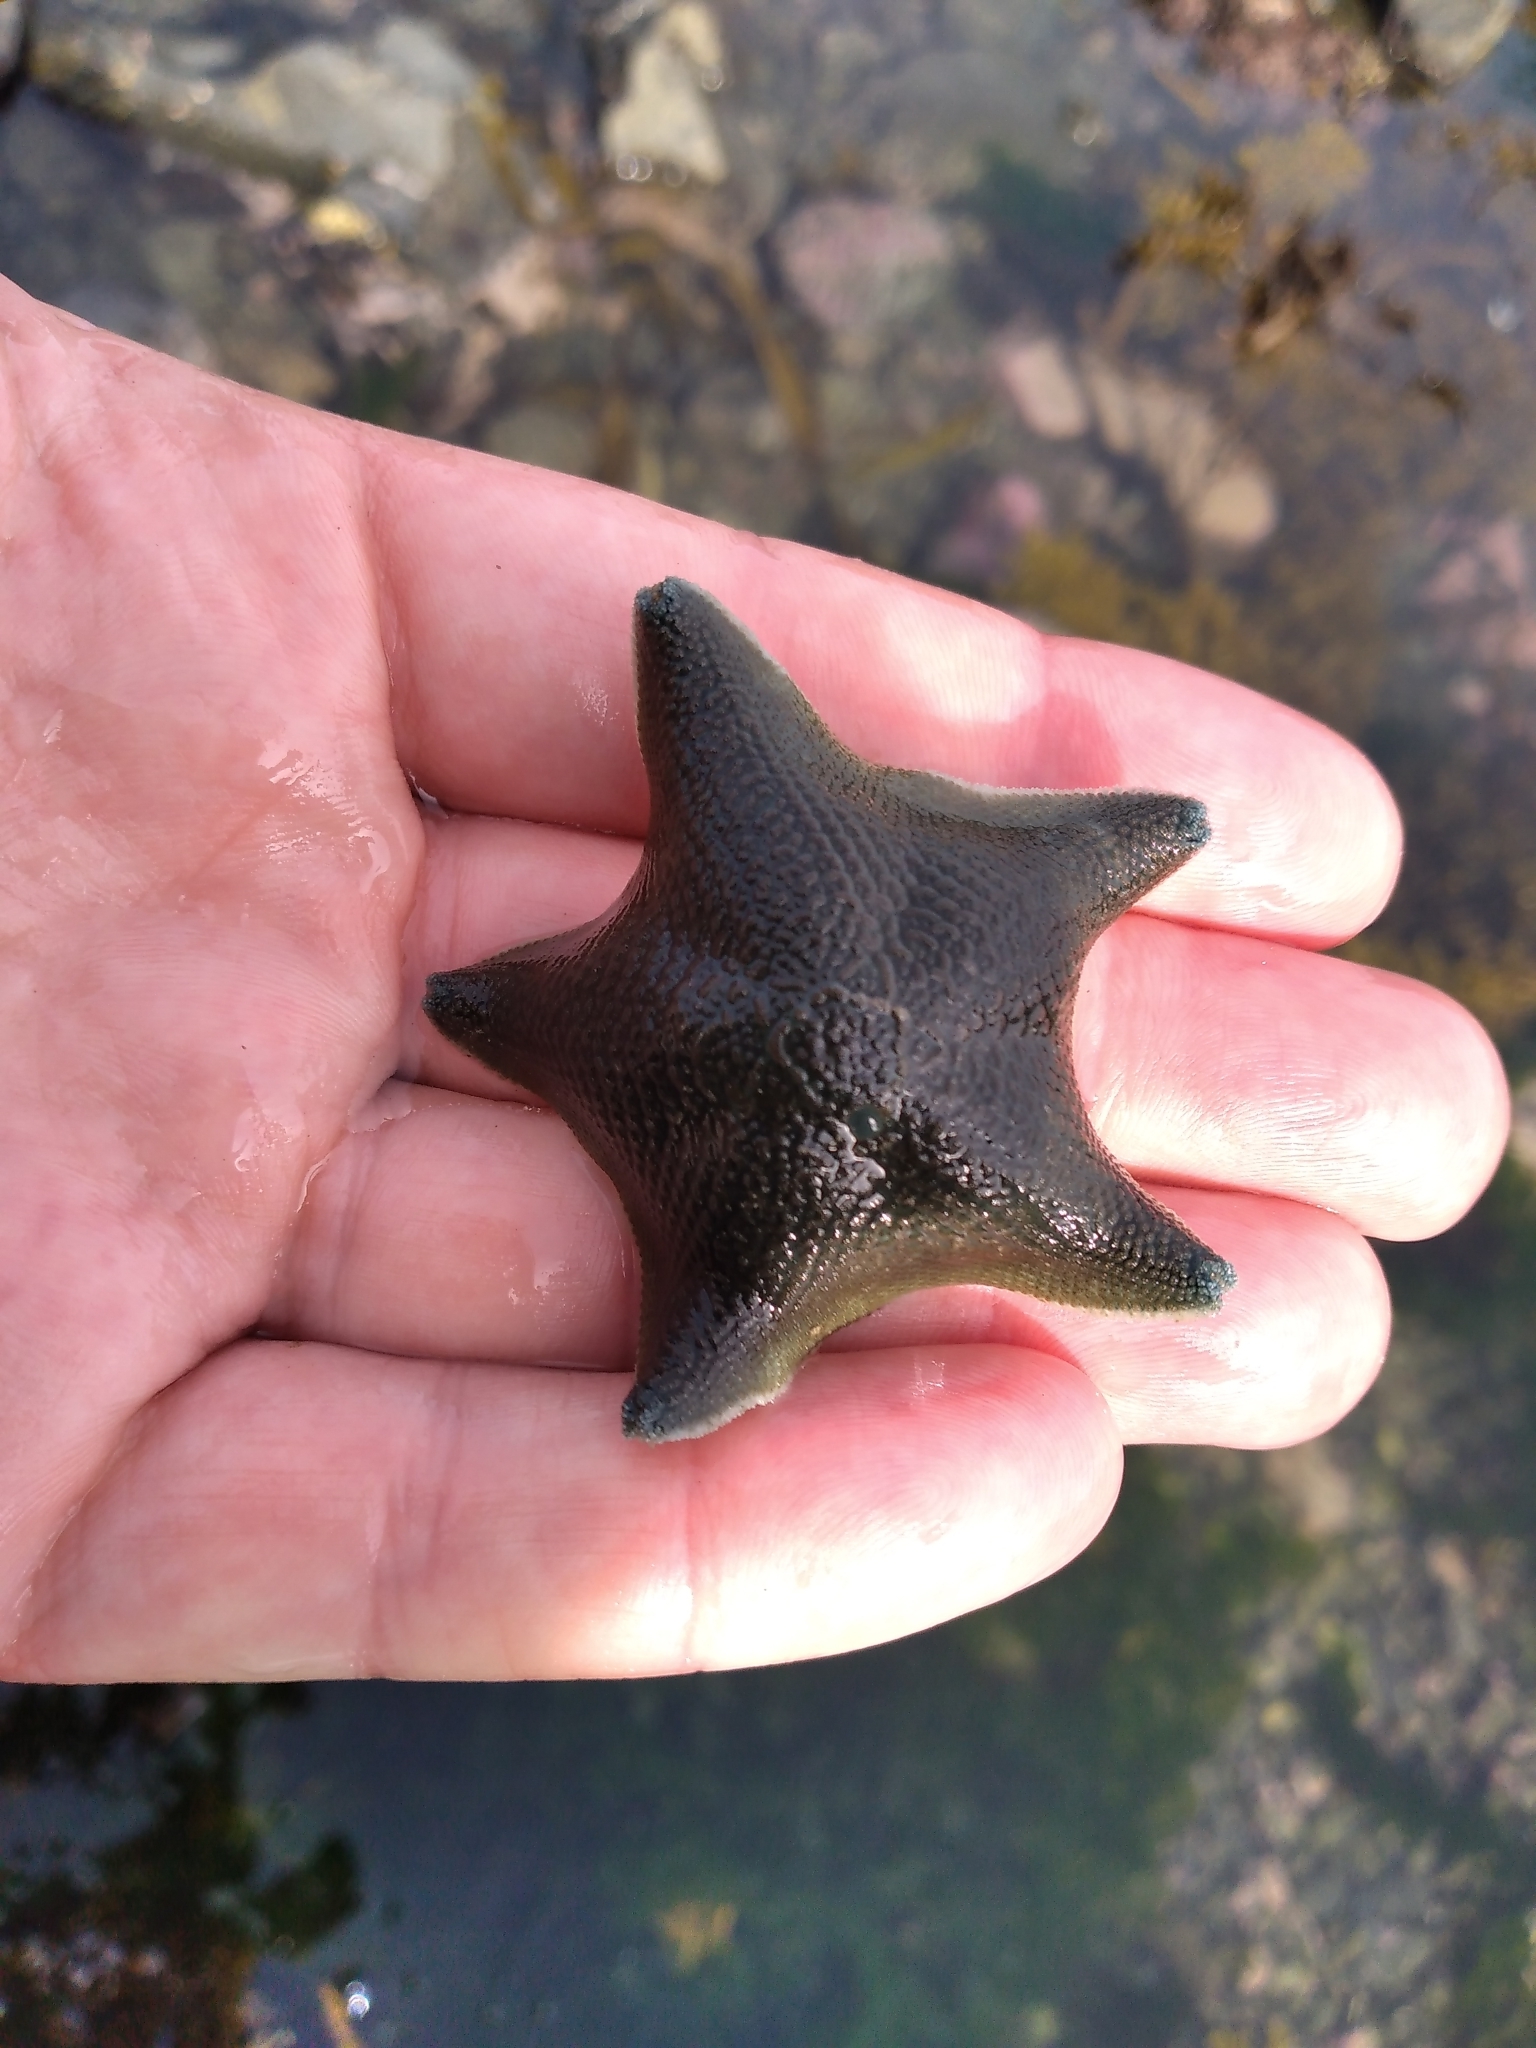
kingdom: Animalia
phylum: Echinodermata
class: Asteroidea
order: Valvatida
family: Asterinidae
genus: Patiriella
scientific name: Patiriella regularis
